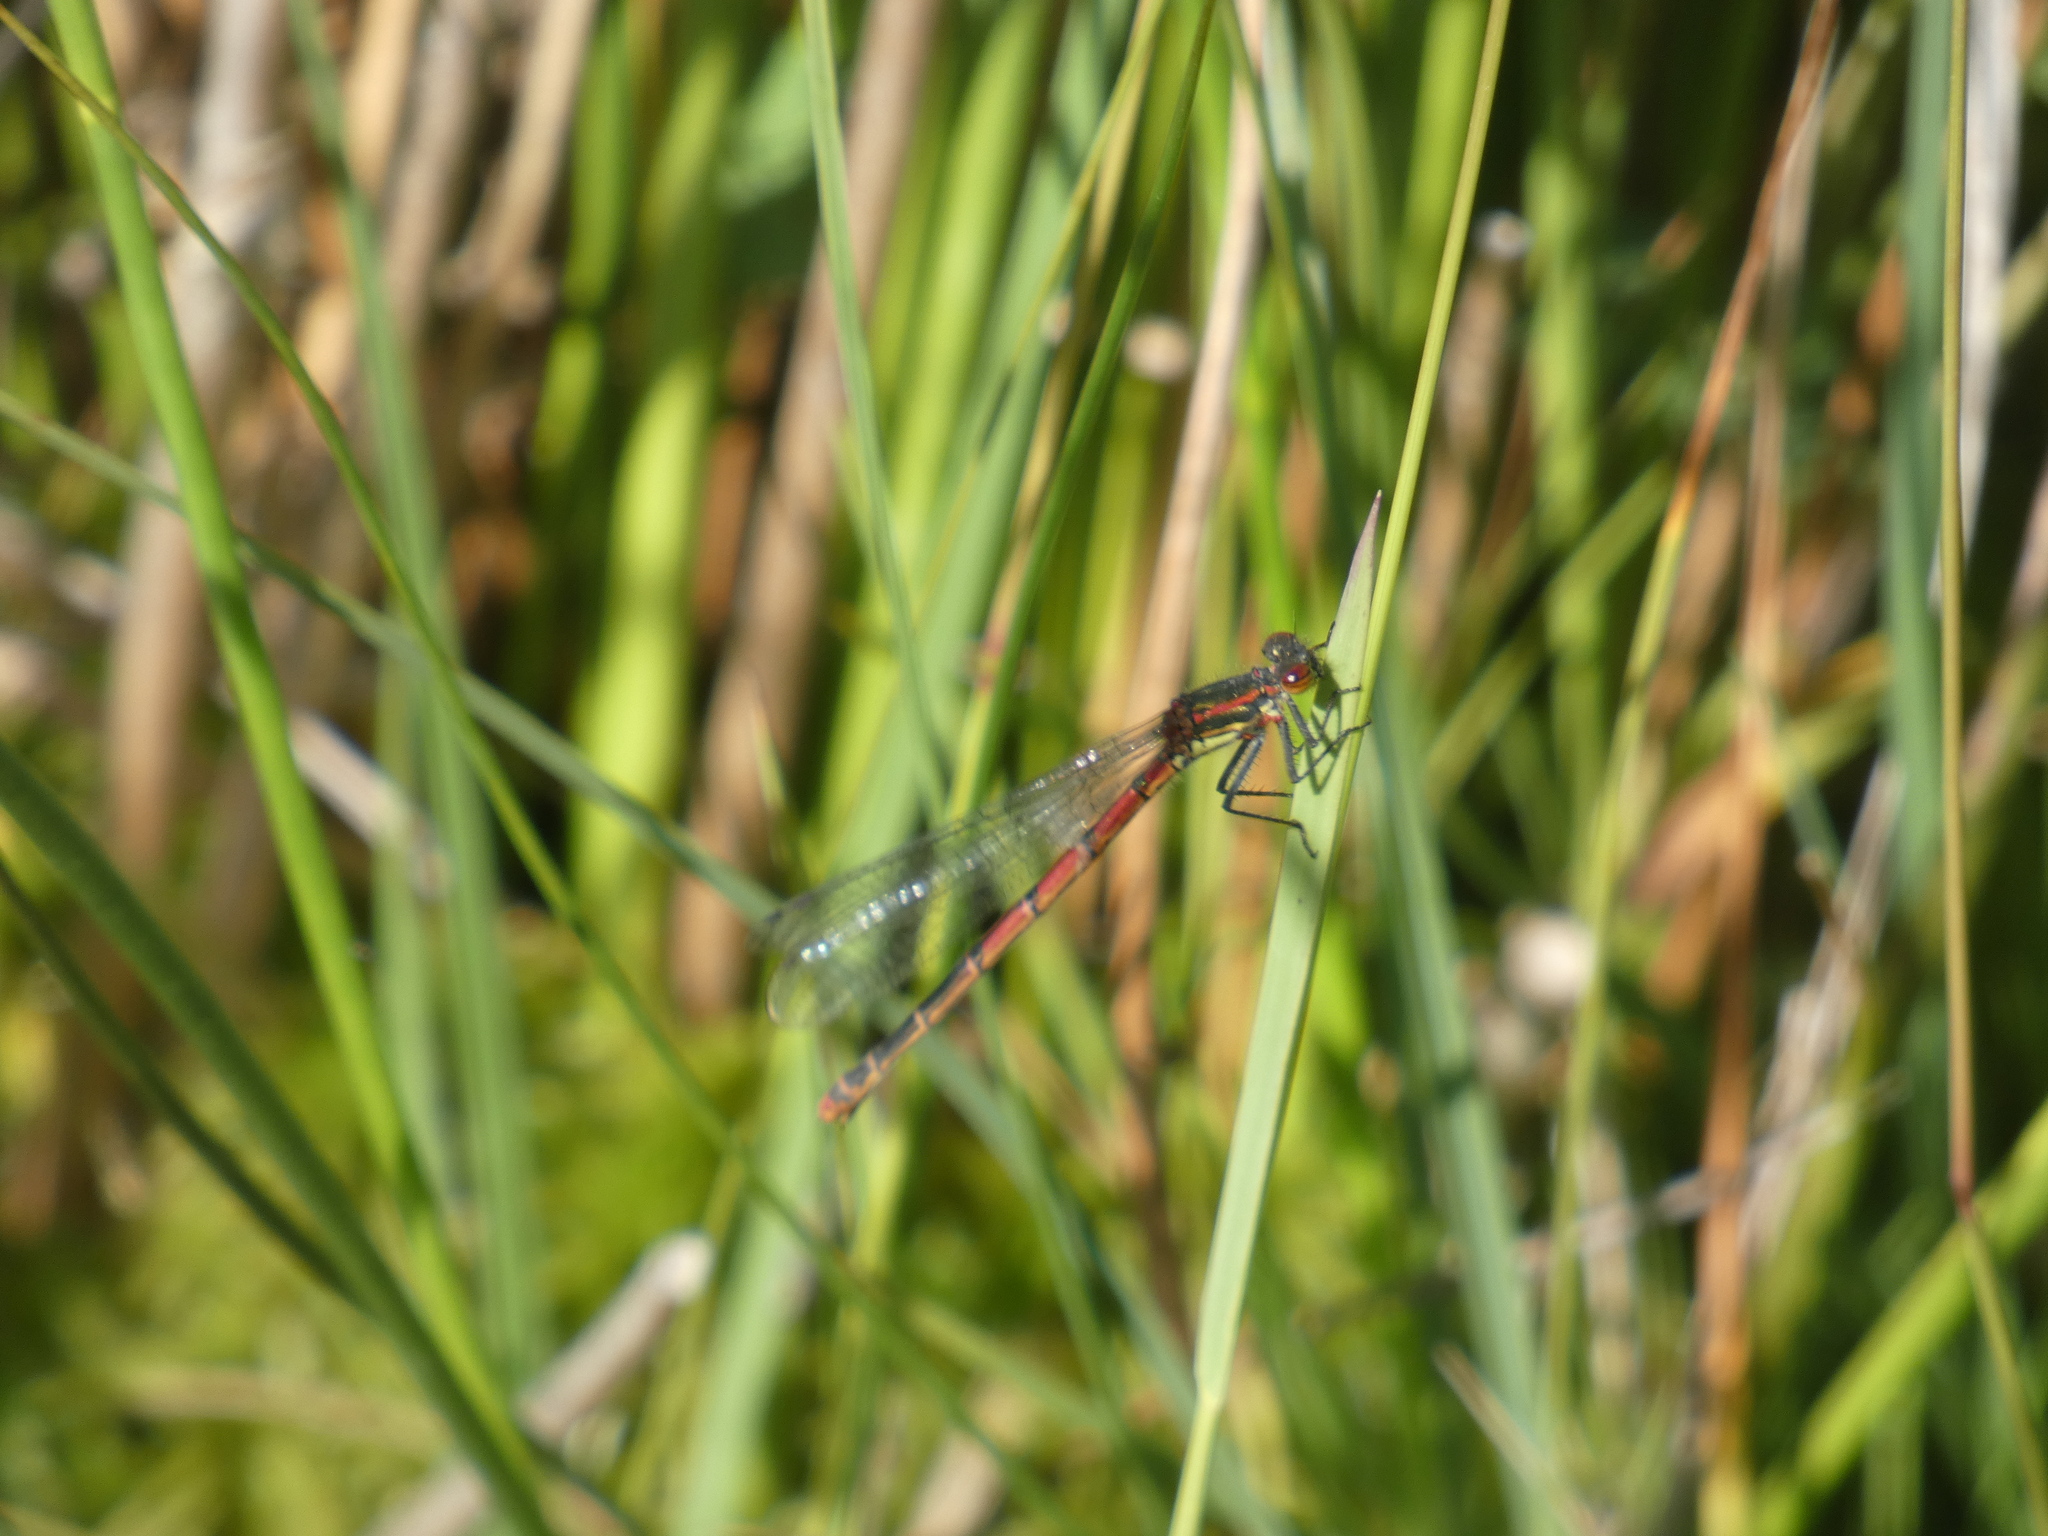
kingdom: Animalia
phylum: Arthropoda
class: Insecta
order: Odonata
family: Coenagrionidae
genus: Pyrrhosoma
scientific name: Pyrrhosoma nymphula
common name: Large red damsel
